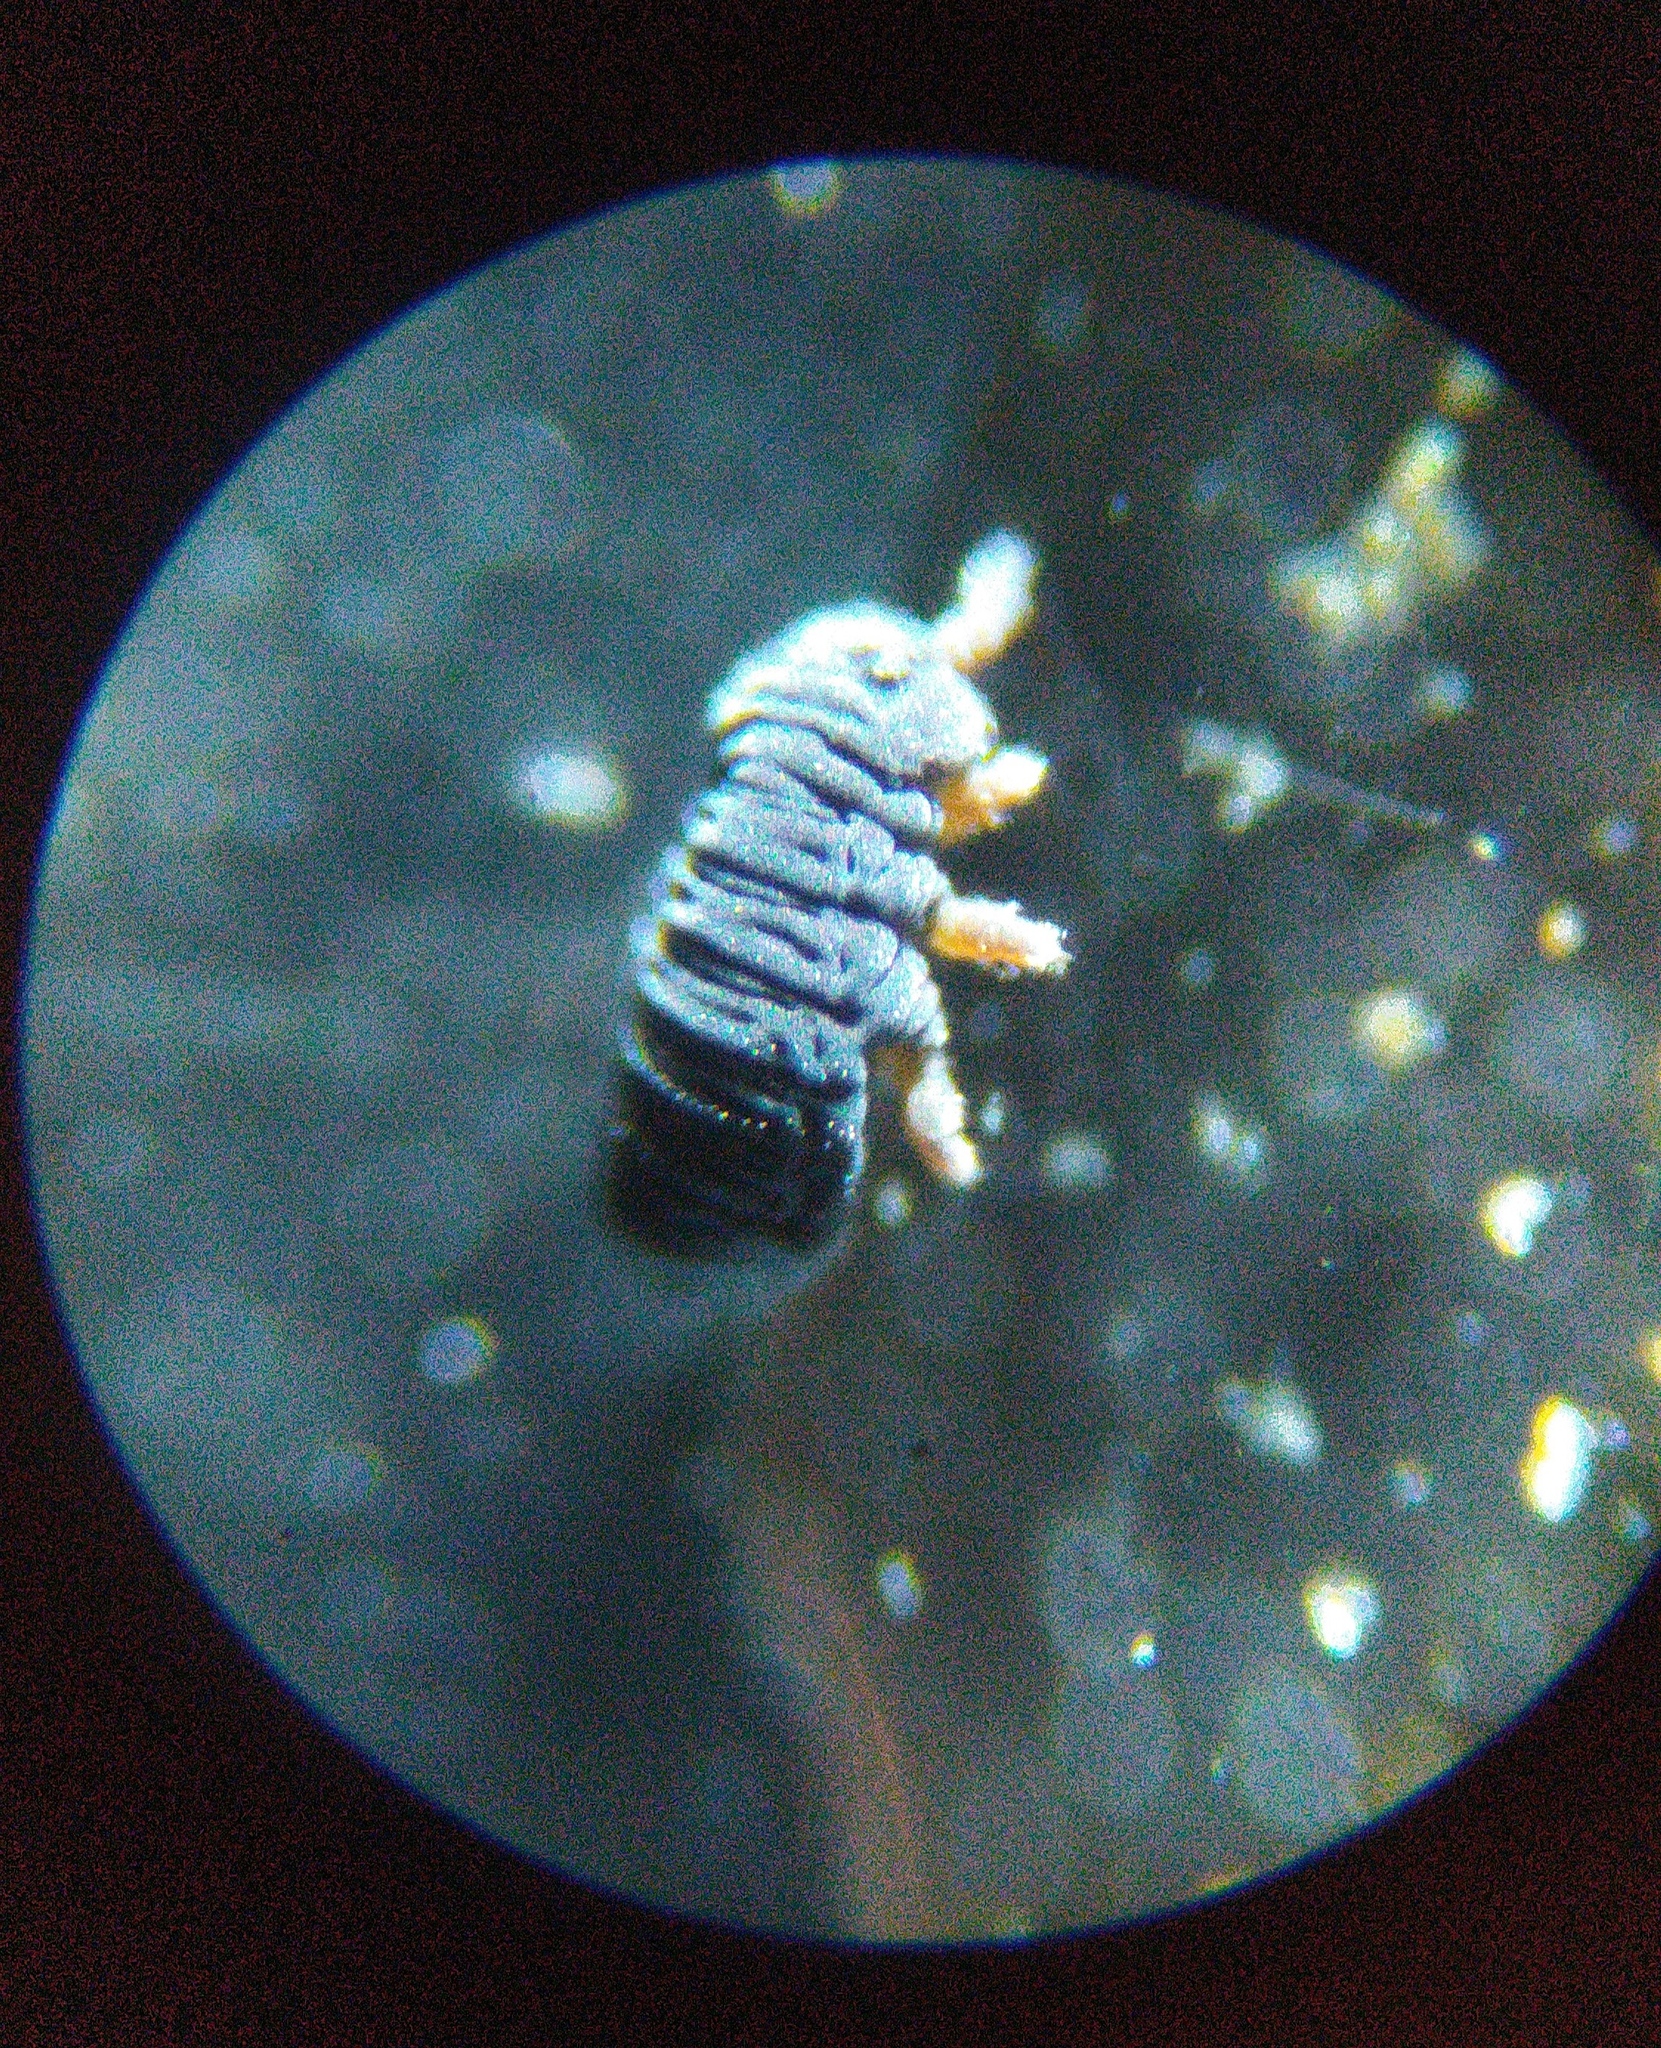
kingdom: Animalia
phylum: Arthropoda
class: Collembola
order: Poduromorpha
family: Poduridae
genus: Podura
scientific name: Podura aquatica
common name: Water springtail
